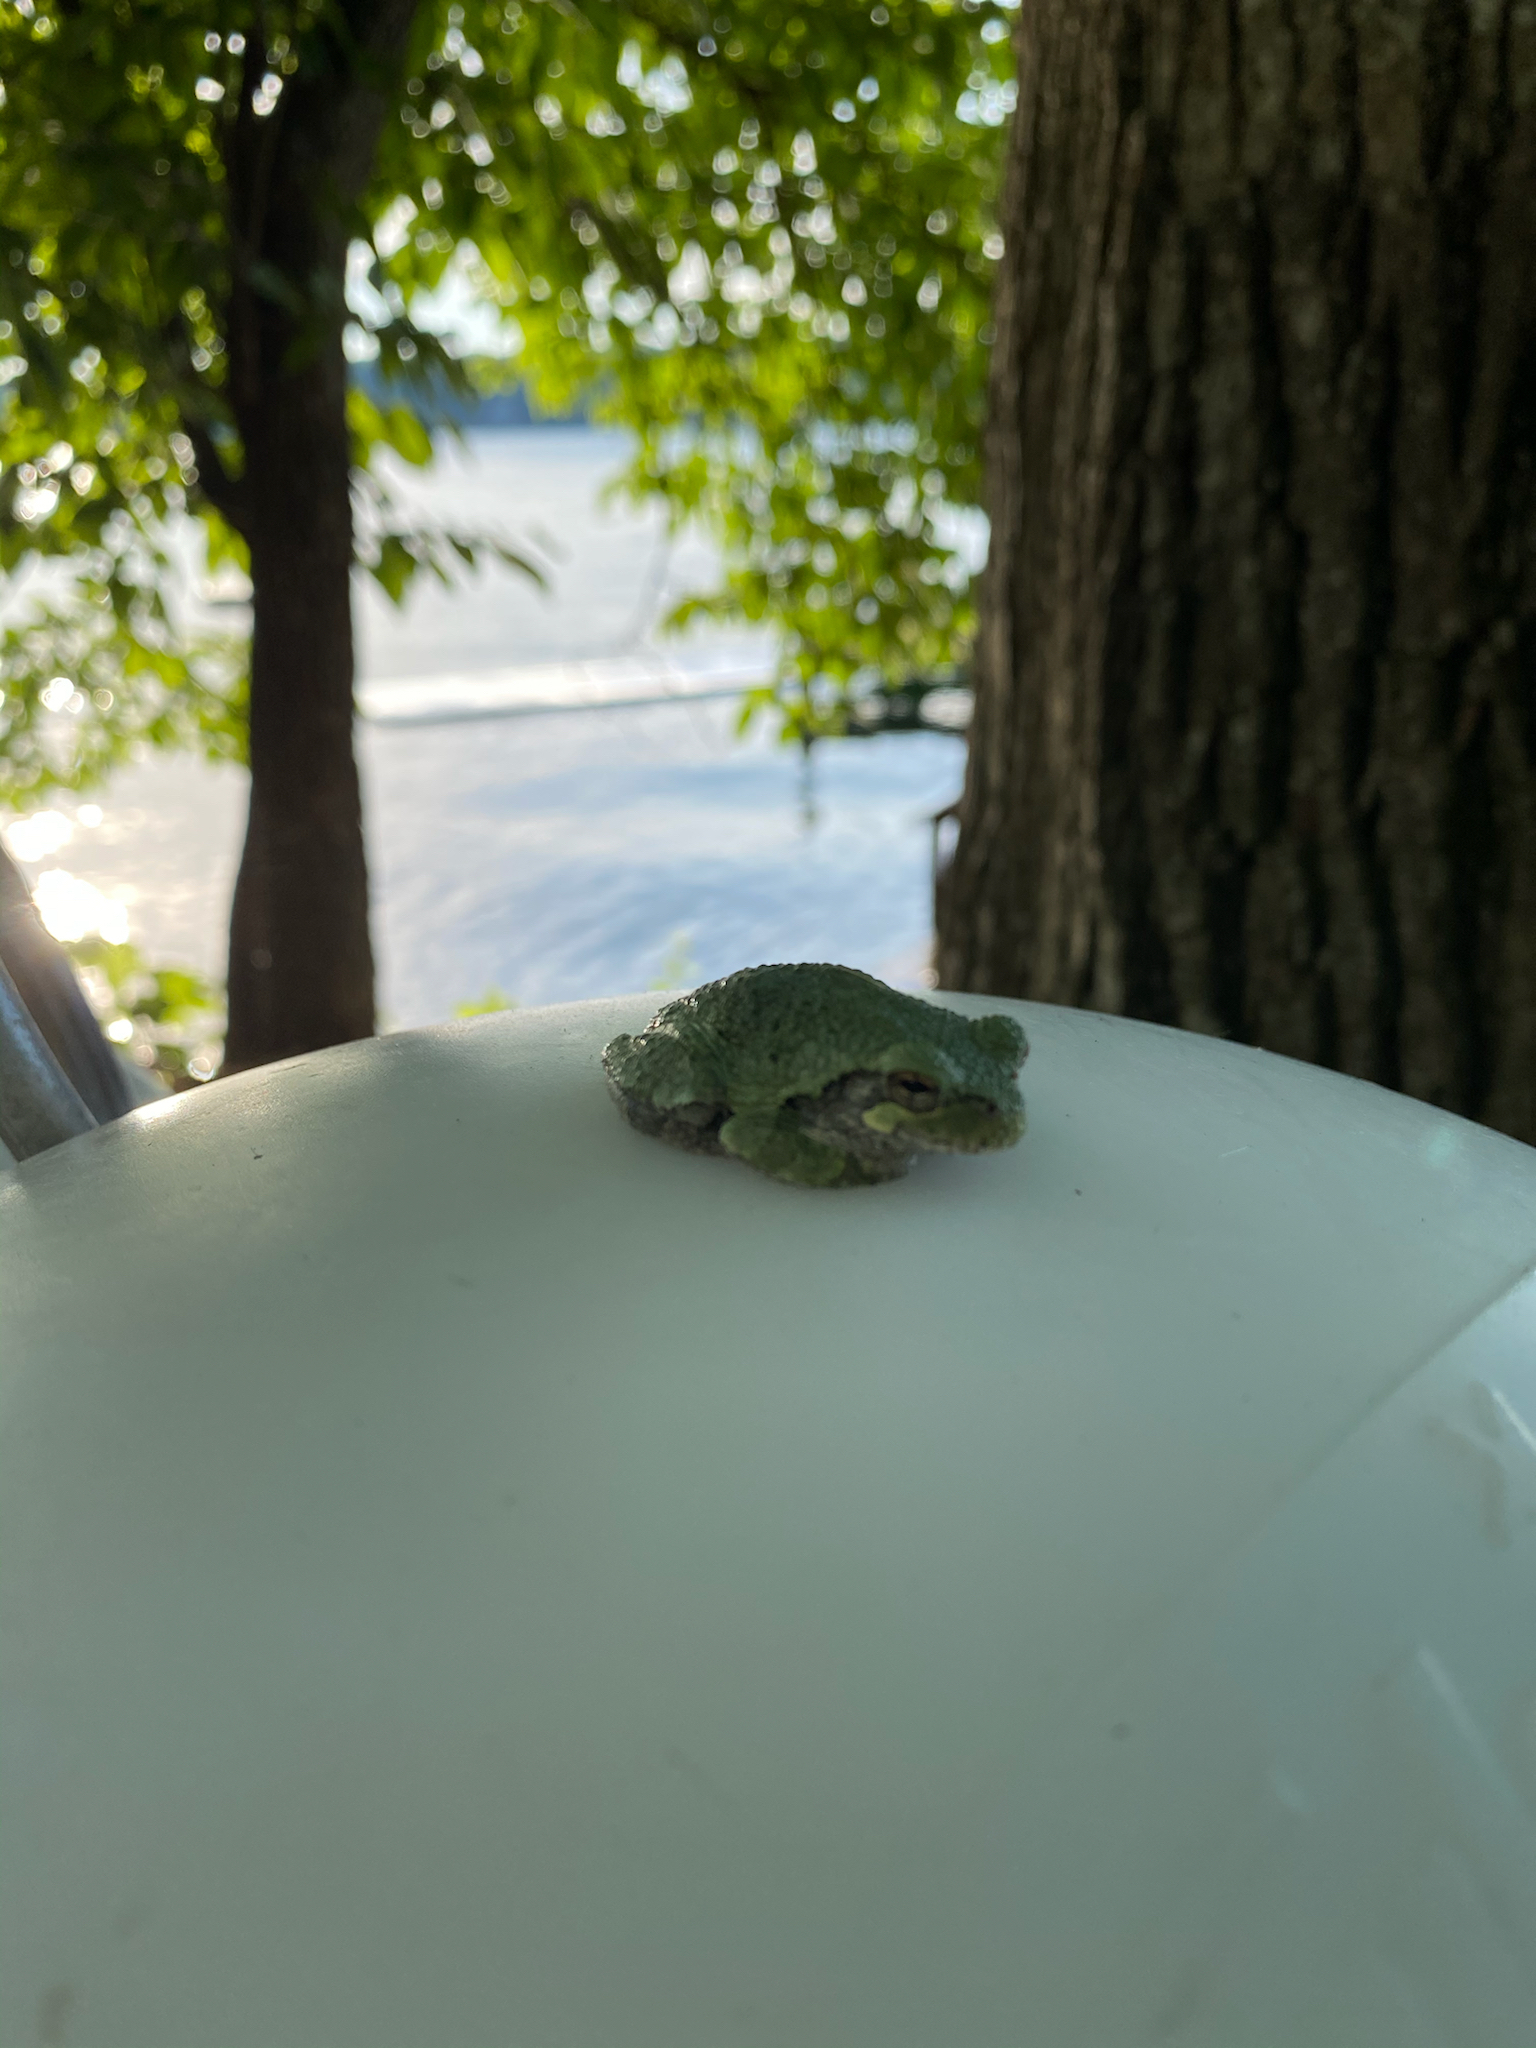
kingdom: Animalia
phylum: Chordata
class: Amphibia
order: Anura
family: Hylidae
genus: Hyla
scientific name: Hyla
